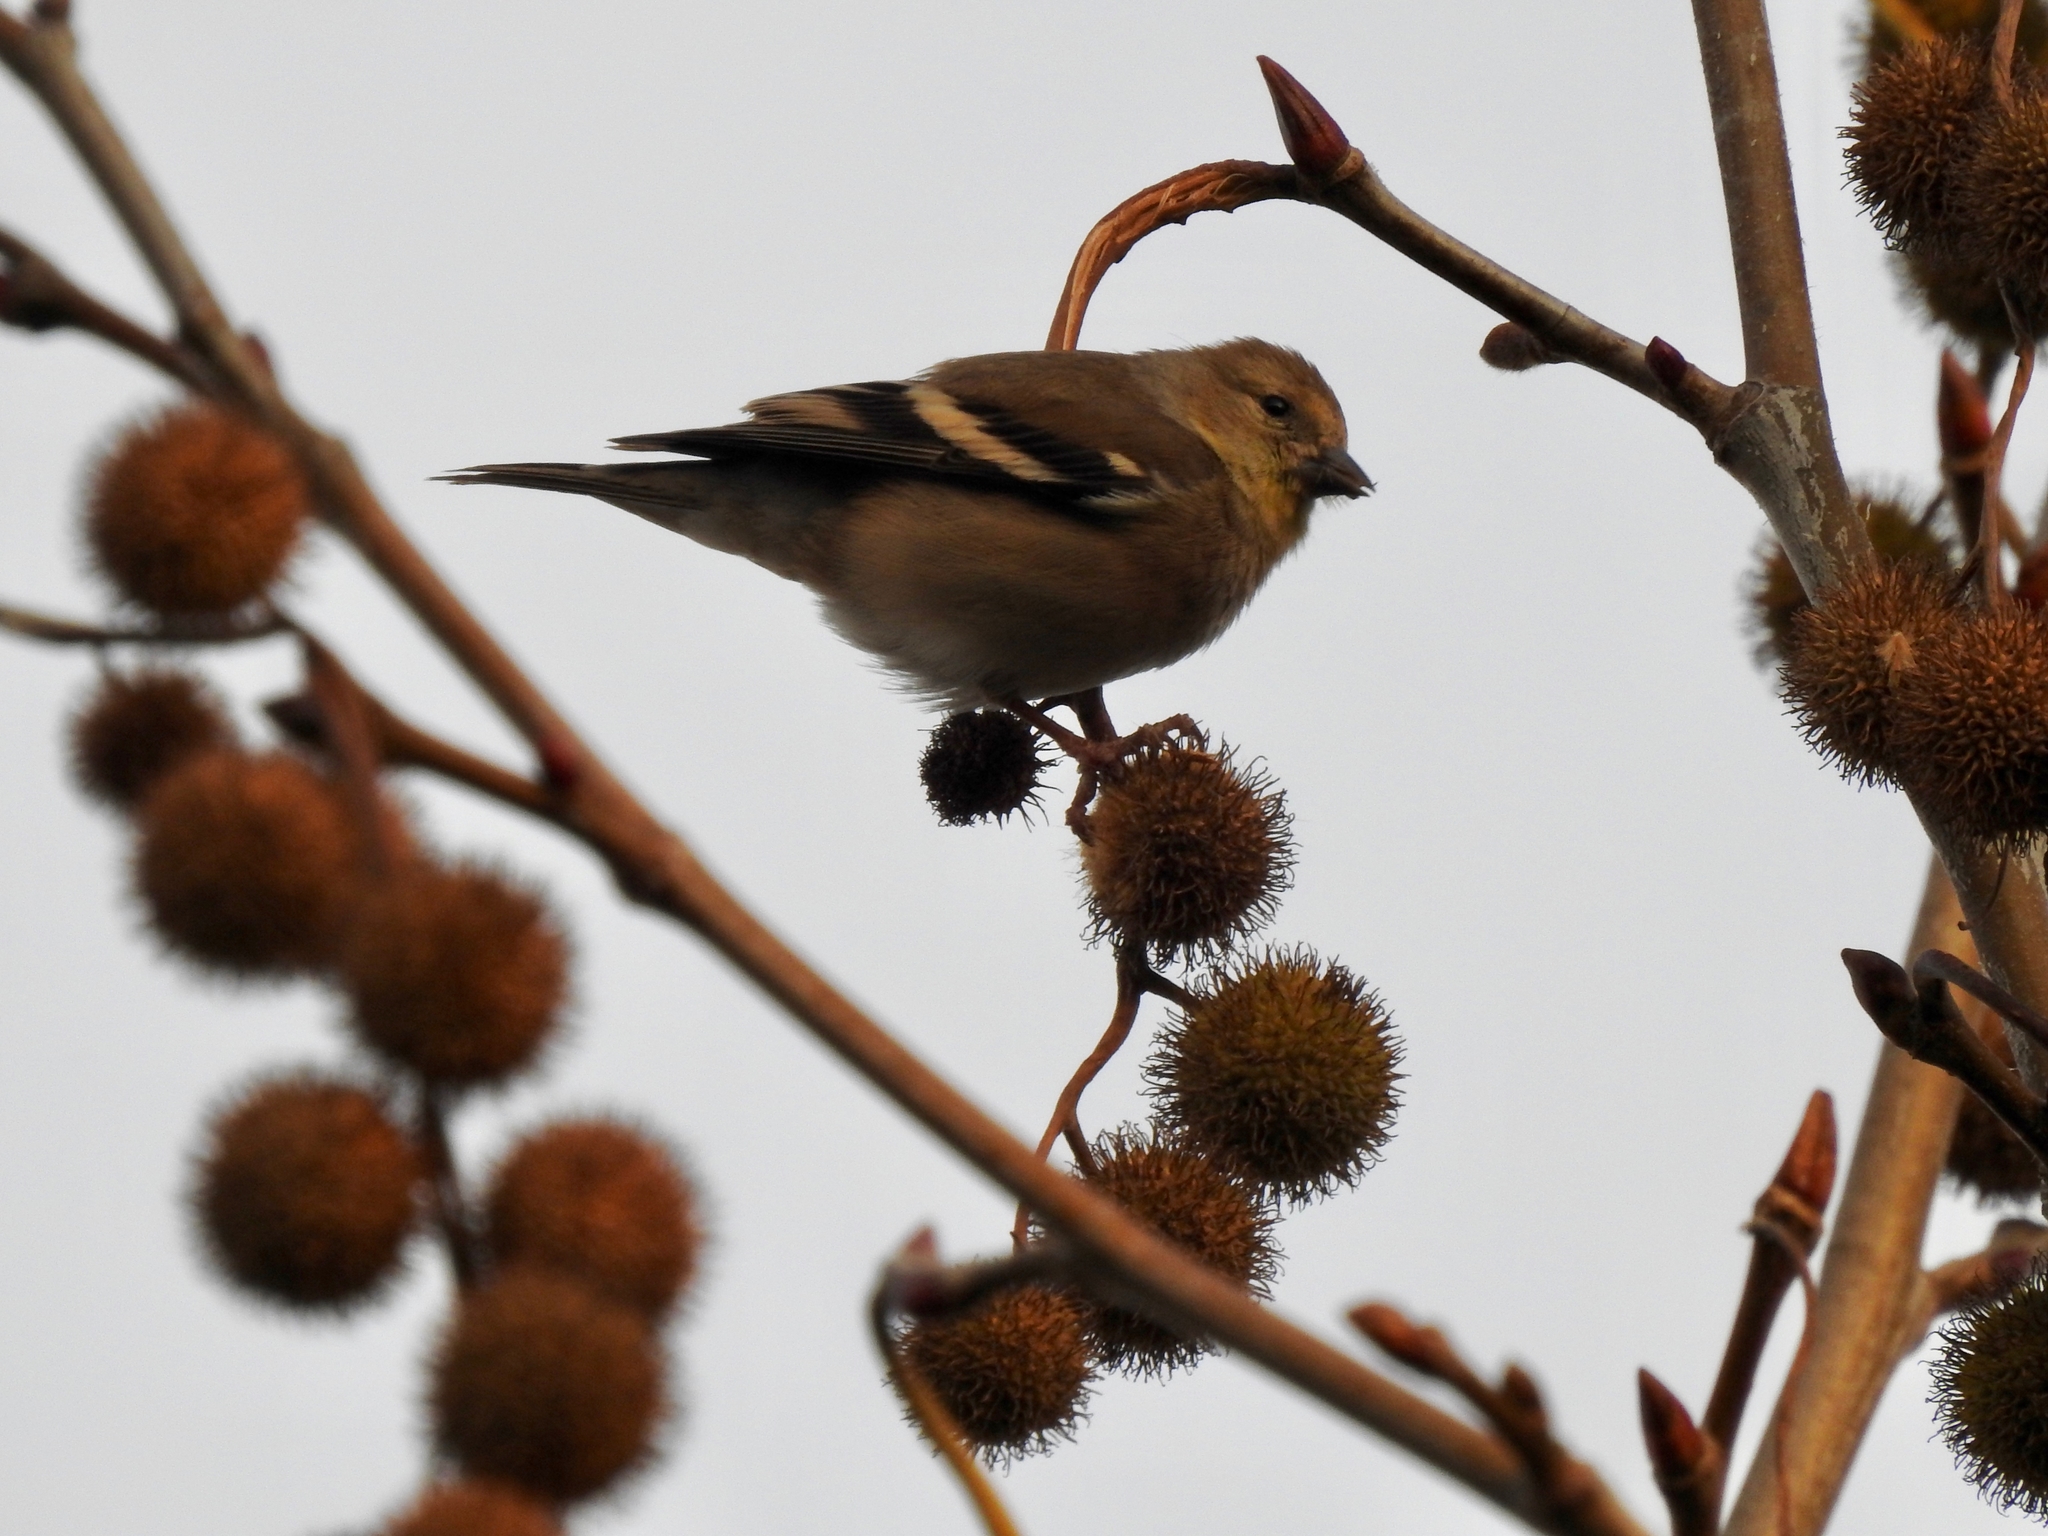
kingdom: Animalia
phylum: Chordata
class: Aves
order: Passeriformes
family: Fringillidae
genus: Spinus
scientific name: Spinus tristis
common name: American goldfinch
